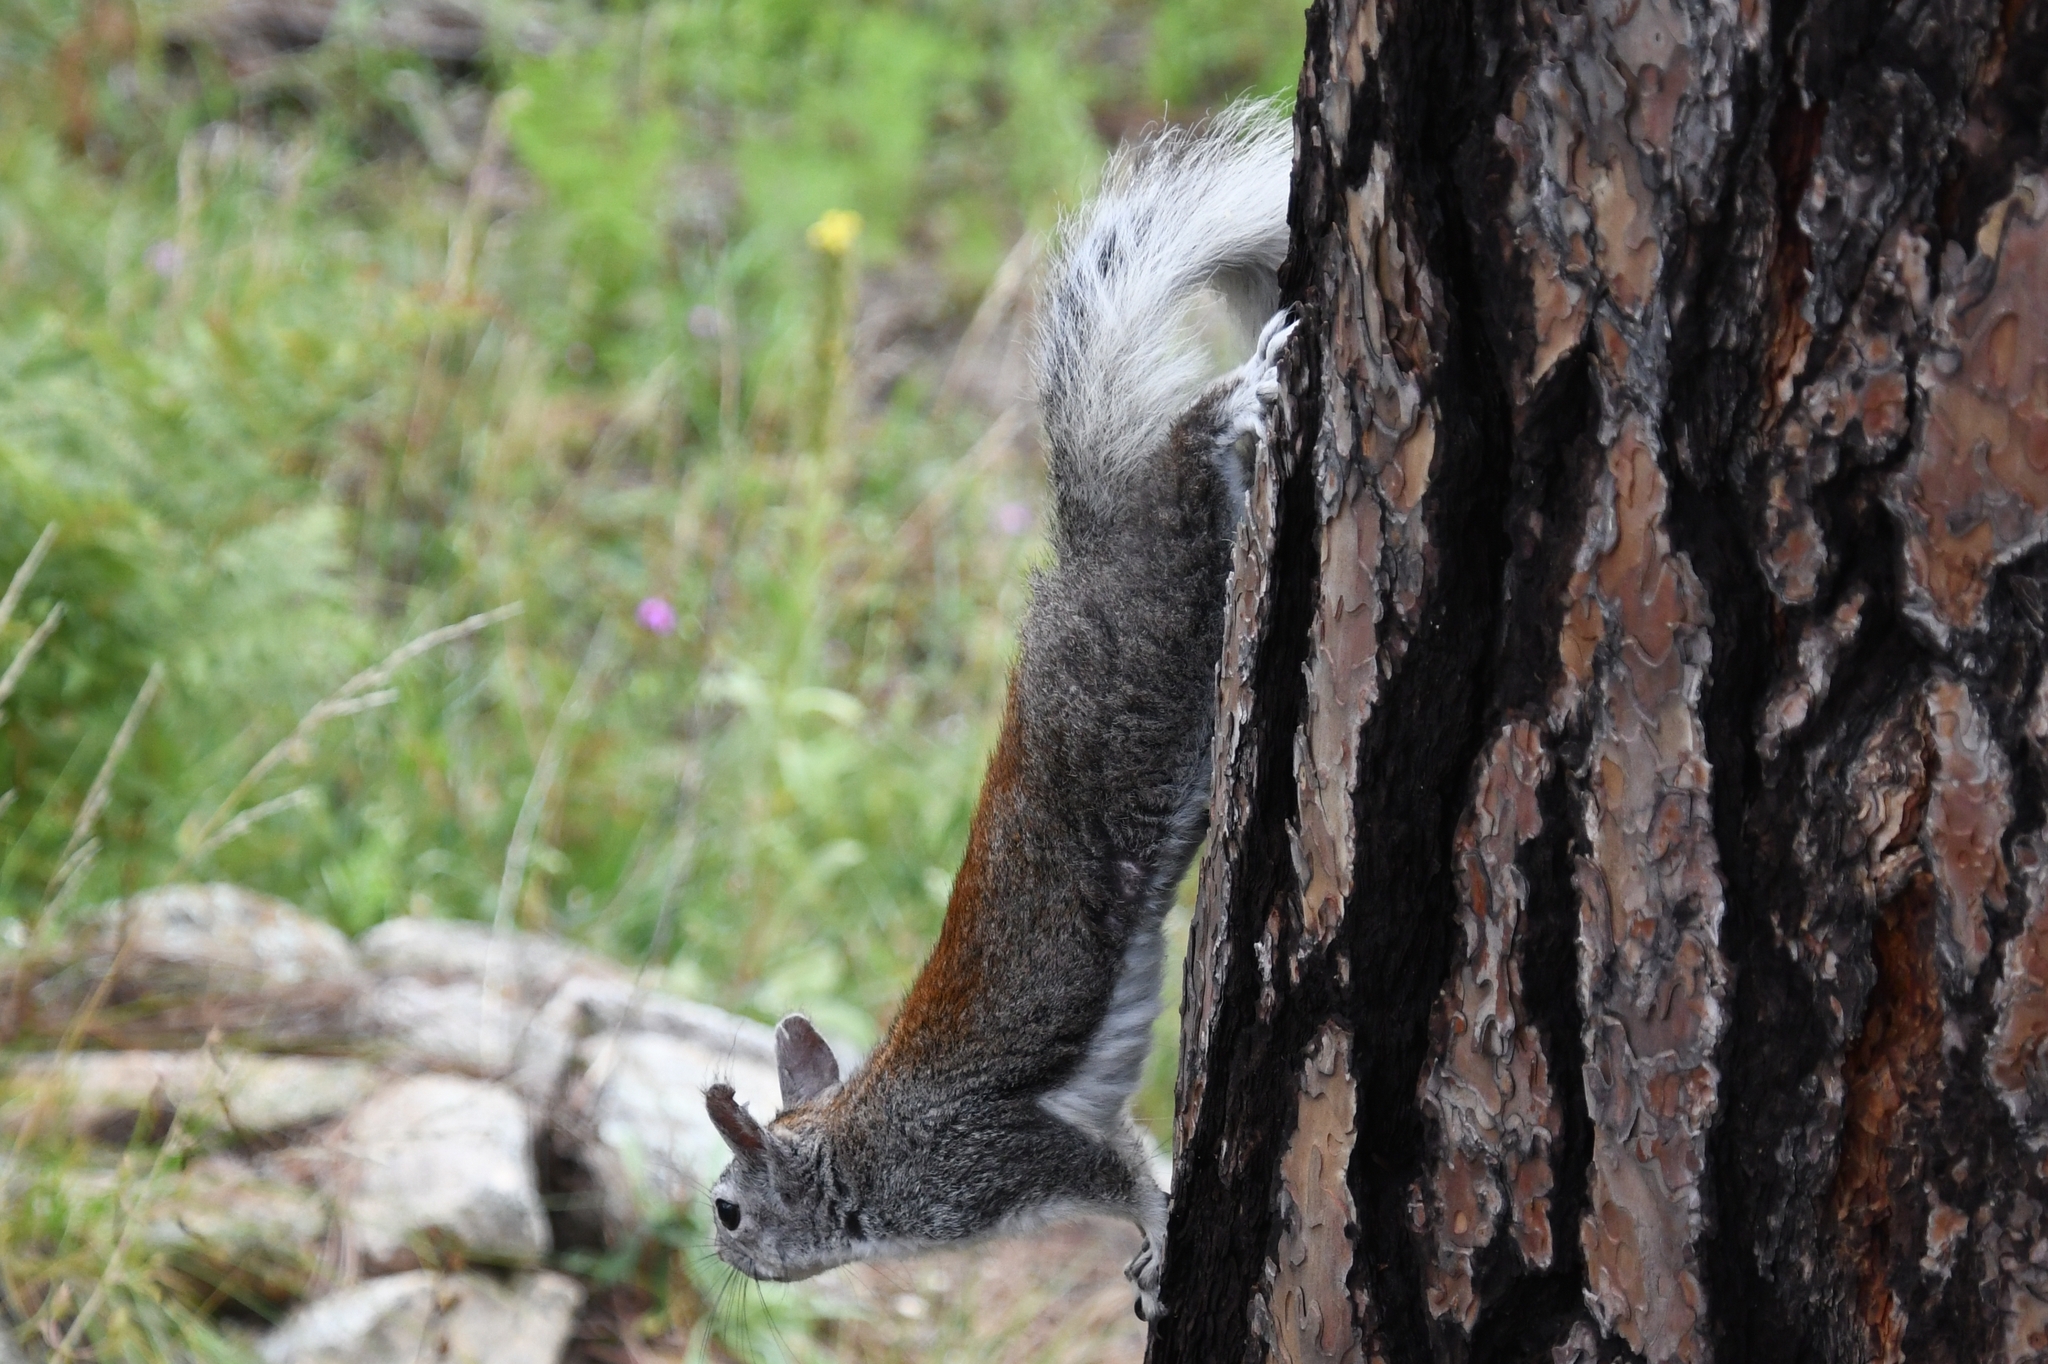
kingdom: Animalia
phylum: Chordata
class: Mammalia
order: Rodentia
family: Sciuridae
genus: Sciurus
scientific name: Sciurus aberti
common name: Abert's squirrel
